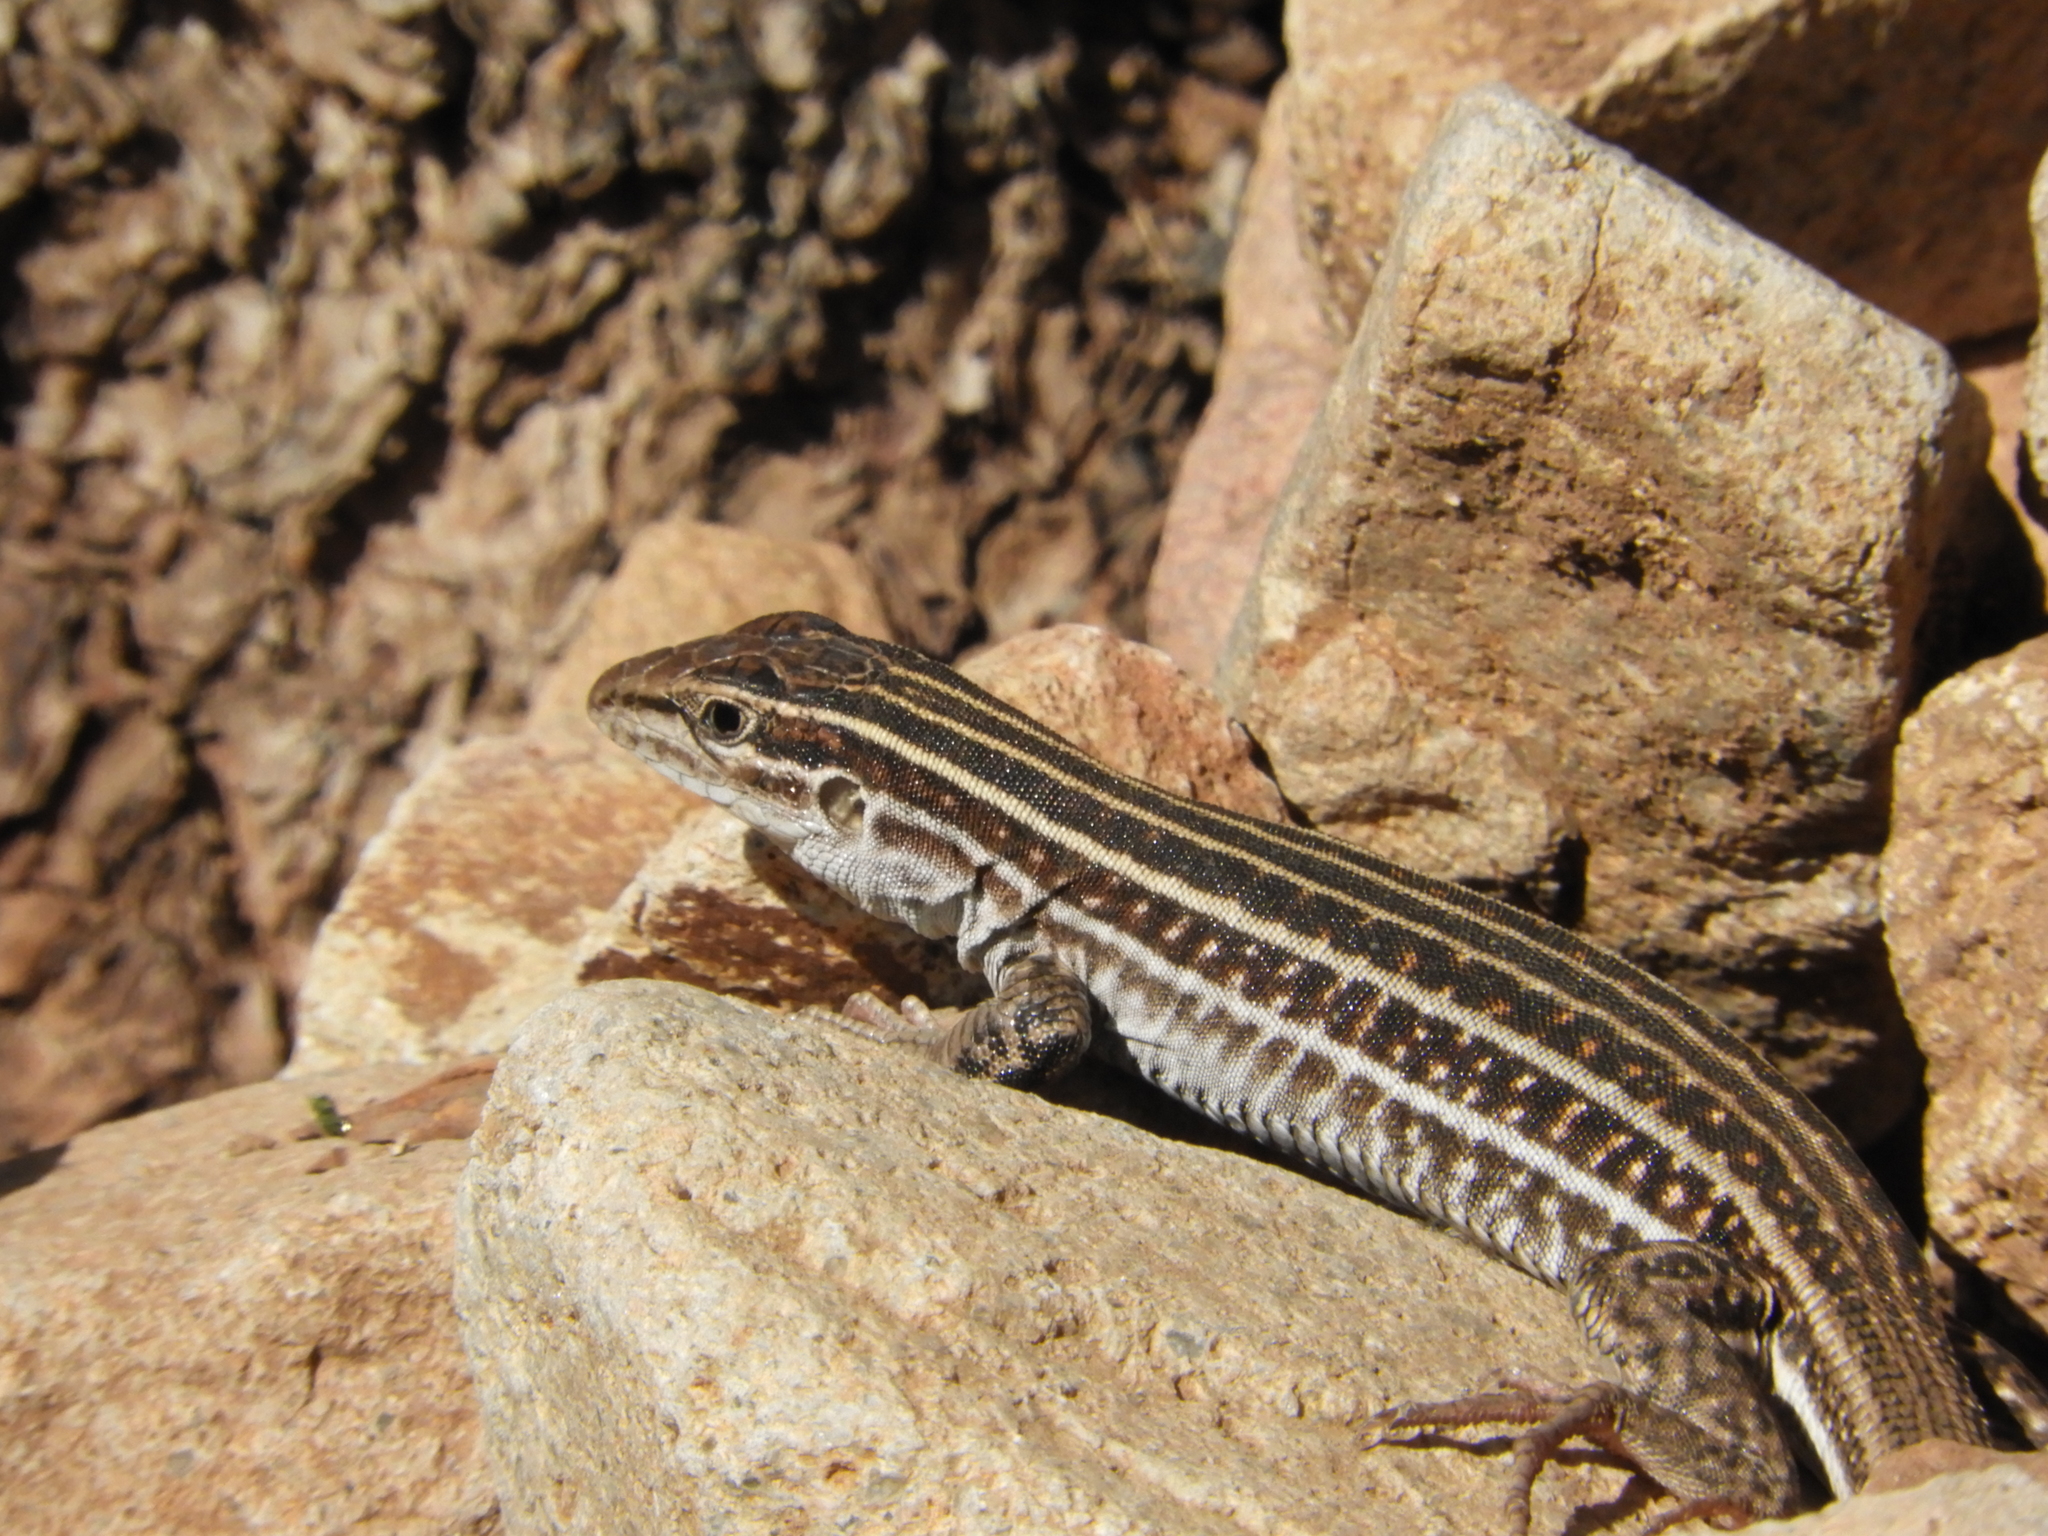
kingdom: Animalia
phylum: Chordata
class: Squamata
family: Teiidae
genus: Aspidoscelis
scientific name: Aspidoscelis exsanguis
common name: Chihuahuan spotted whiptail
